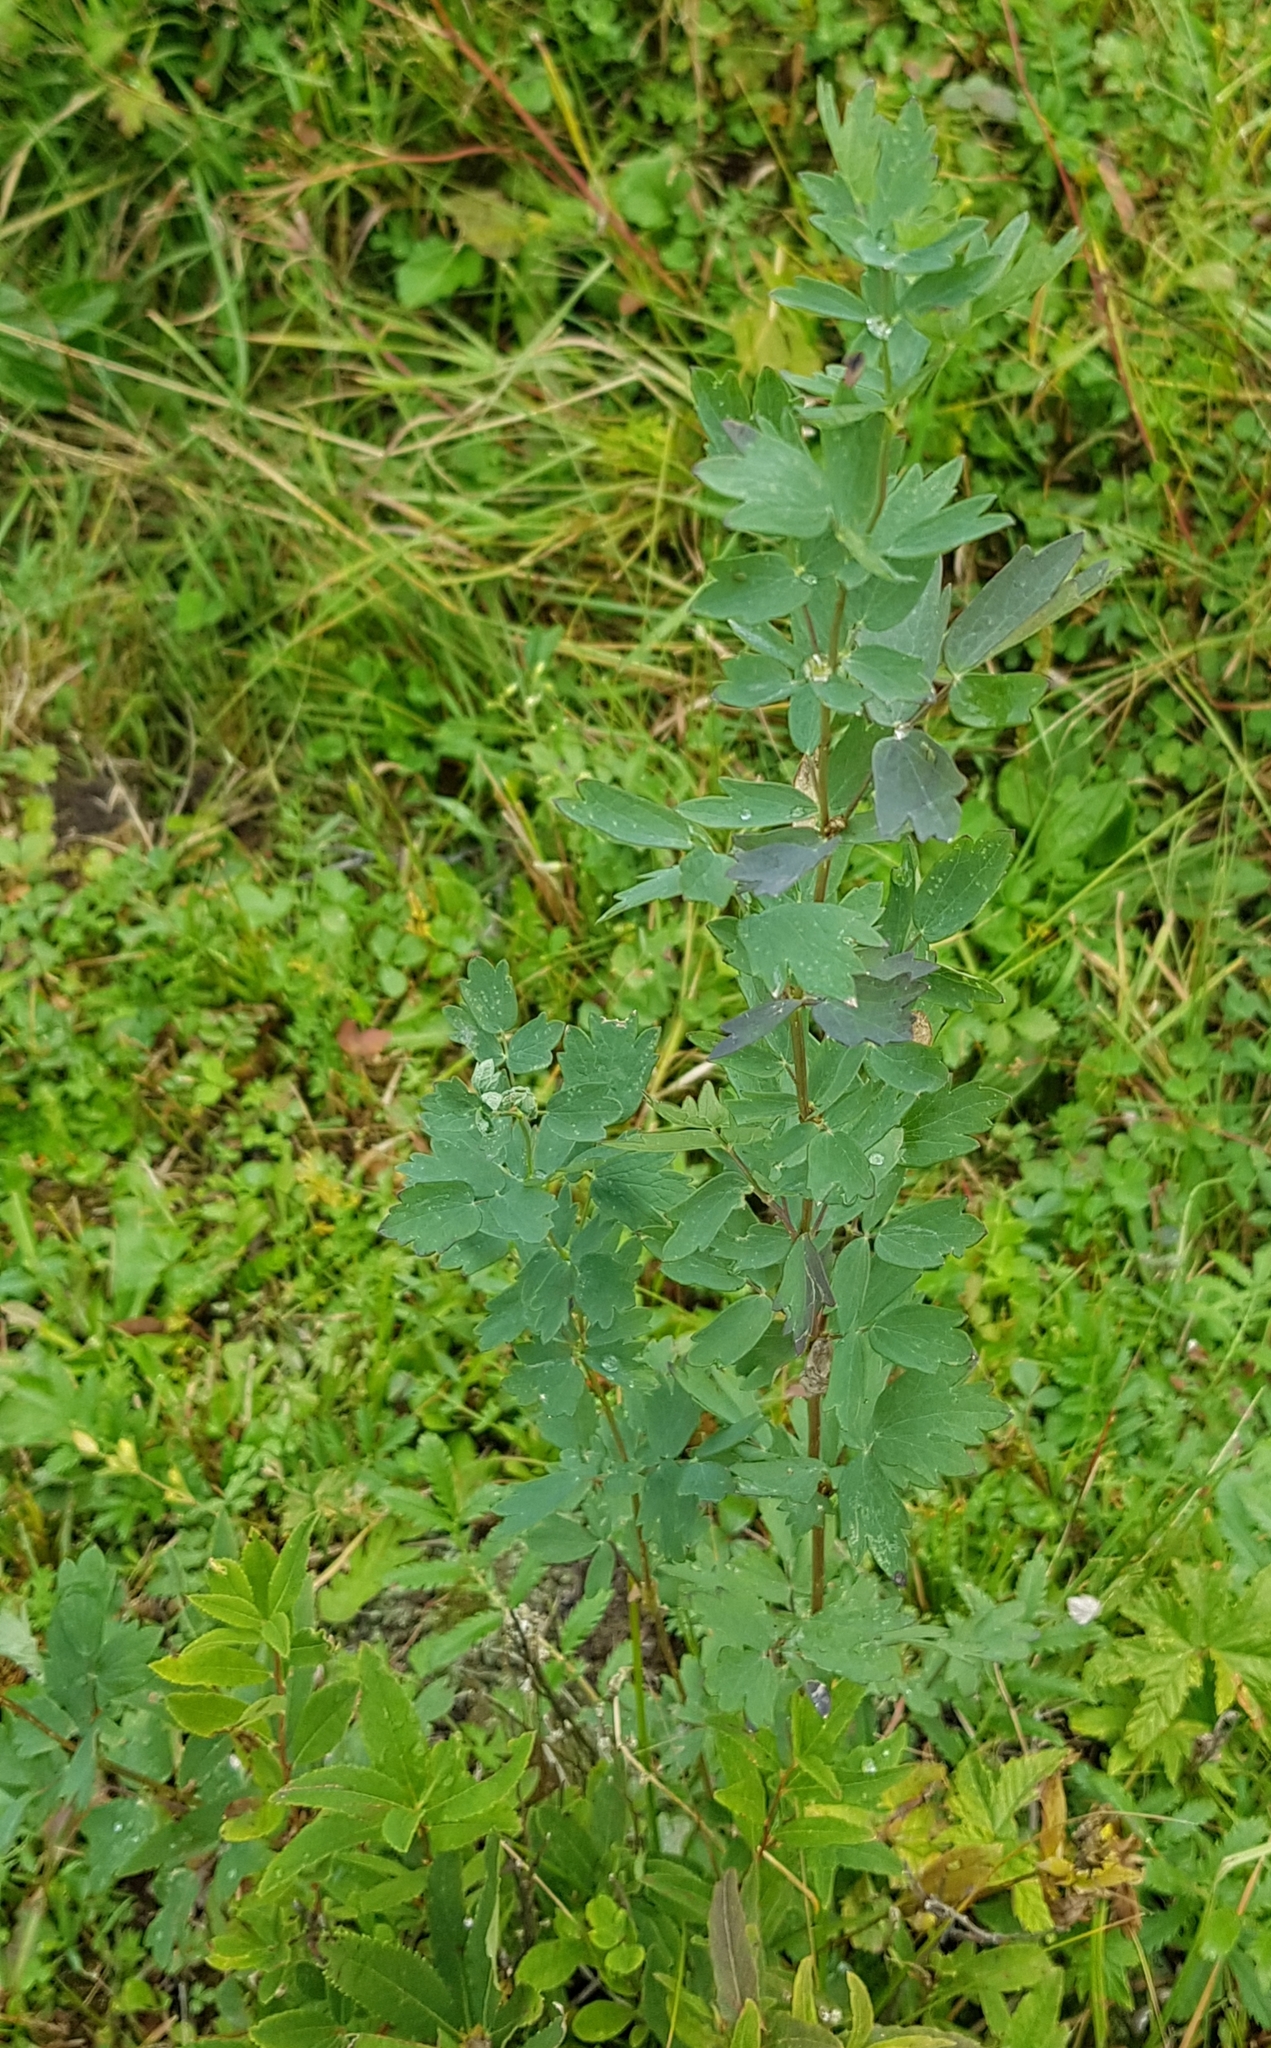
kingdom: Plantae
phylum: Tracheophyta
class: Magnoliopsida
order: Ranunculales
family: Ranunculaceae
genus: Thalictrum
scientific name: Thalictrum simplex
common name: Small meadow-rue
